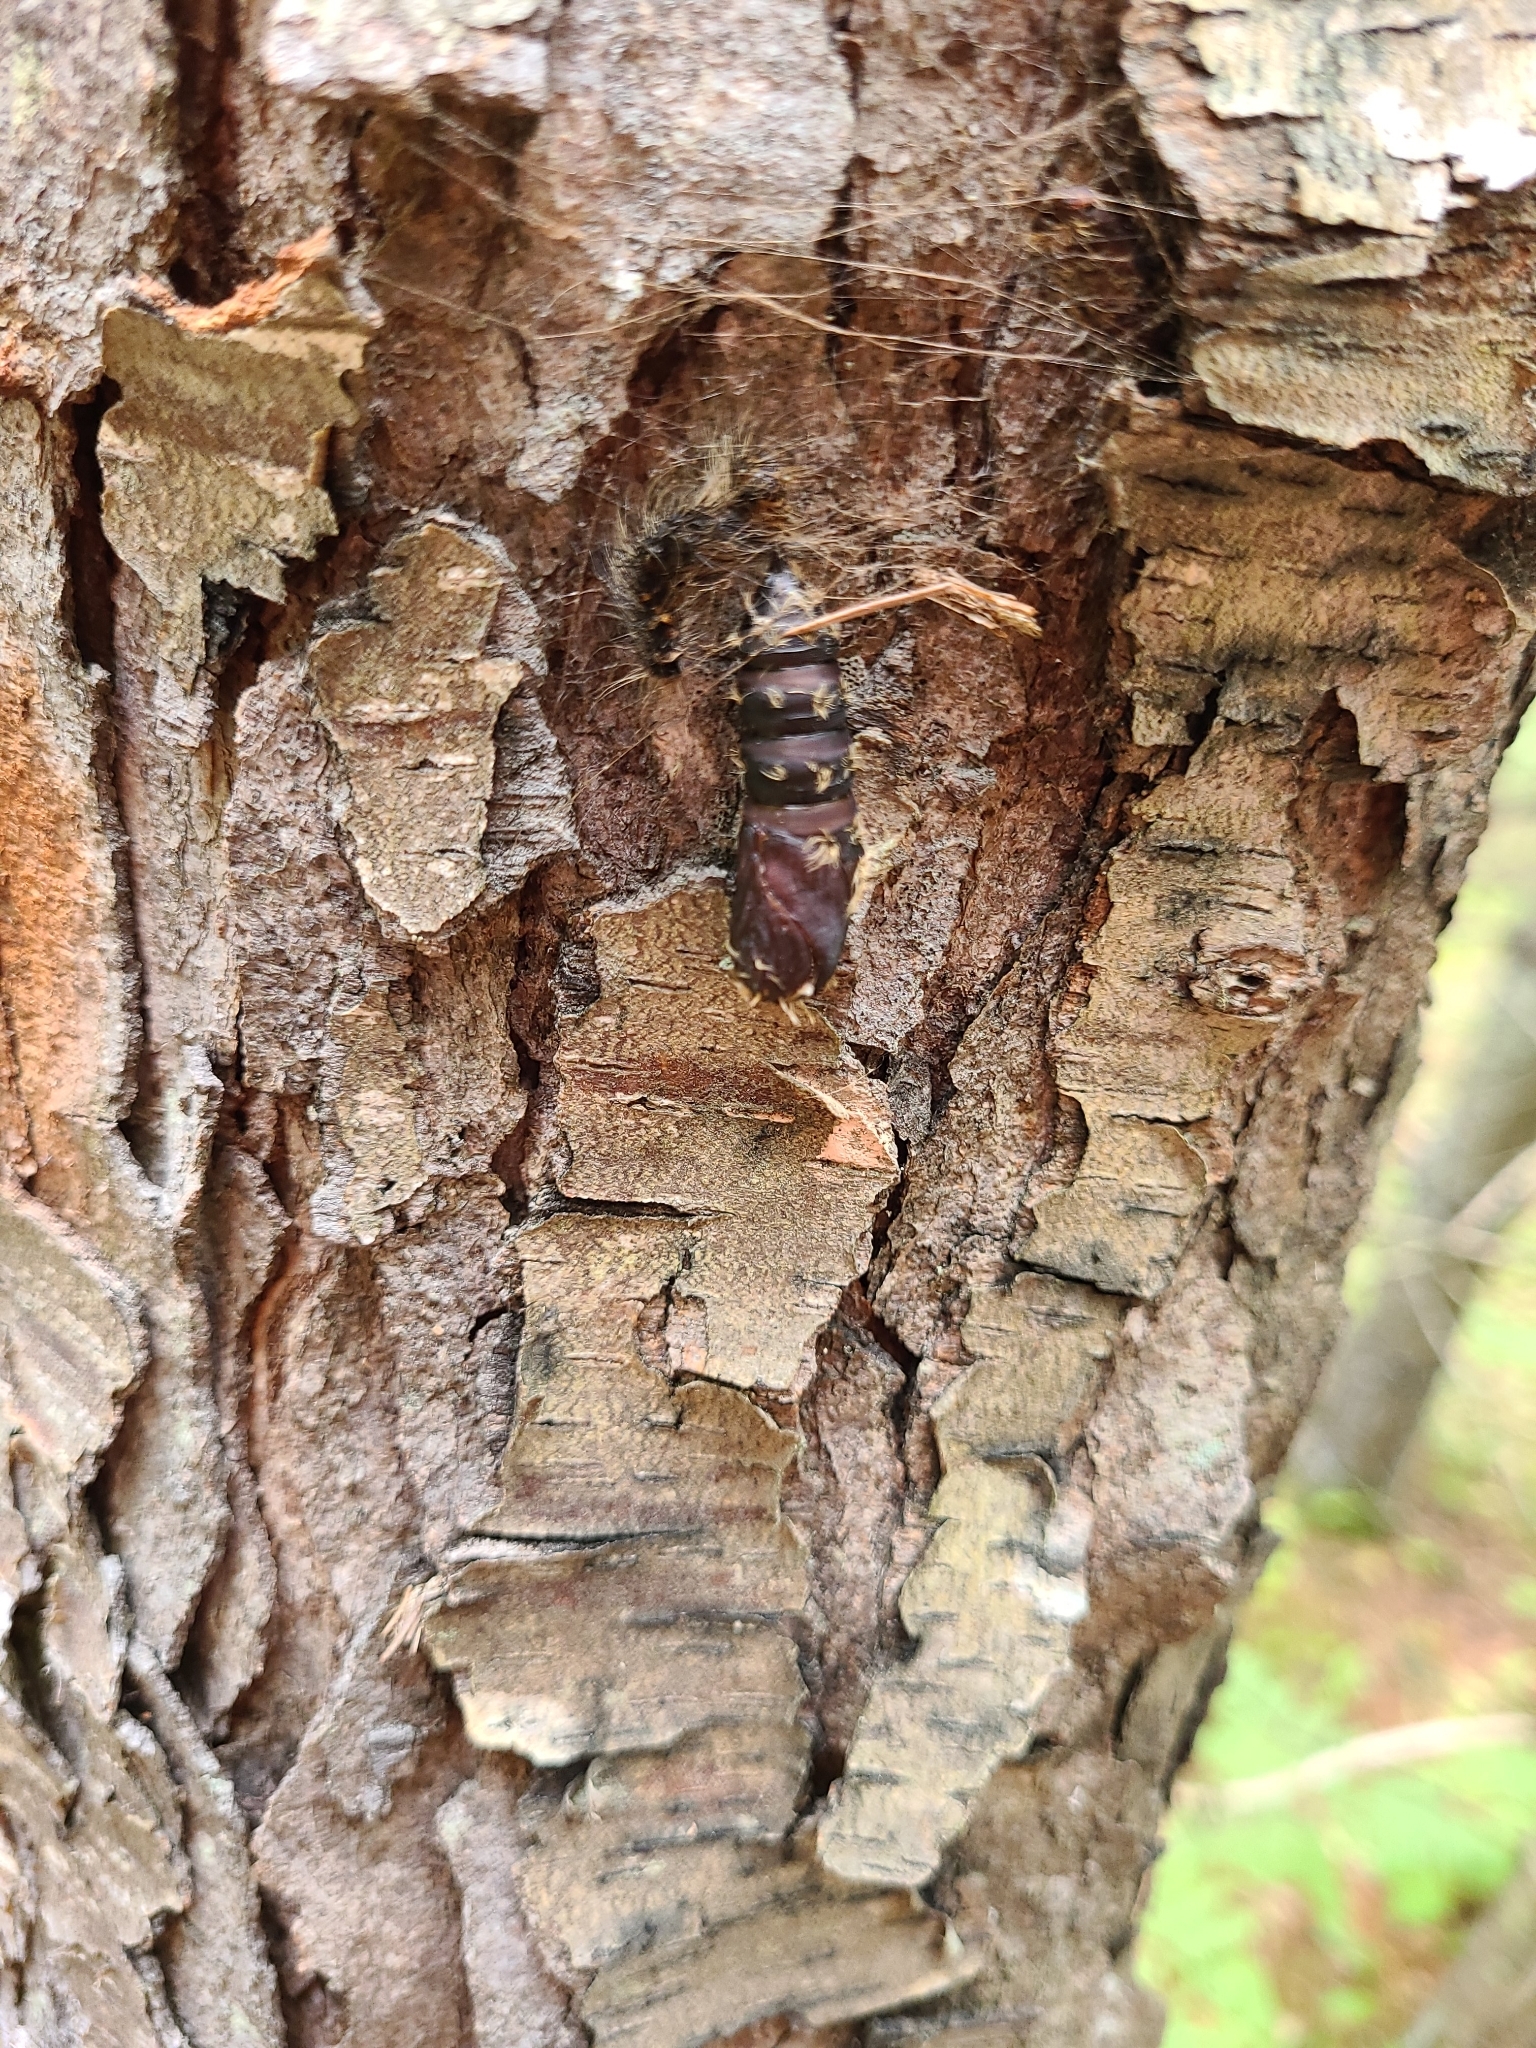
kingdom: Animalia
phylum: Arthropoda
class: Insecta
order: Lepidoptera
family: Erebidae
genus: Lymantria
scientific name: Lymantria dispar
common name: Gypsy moth
